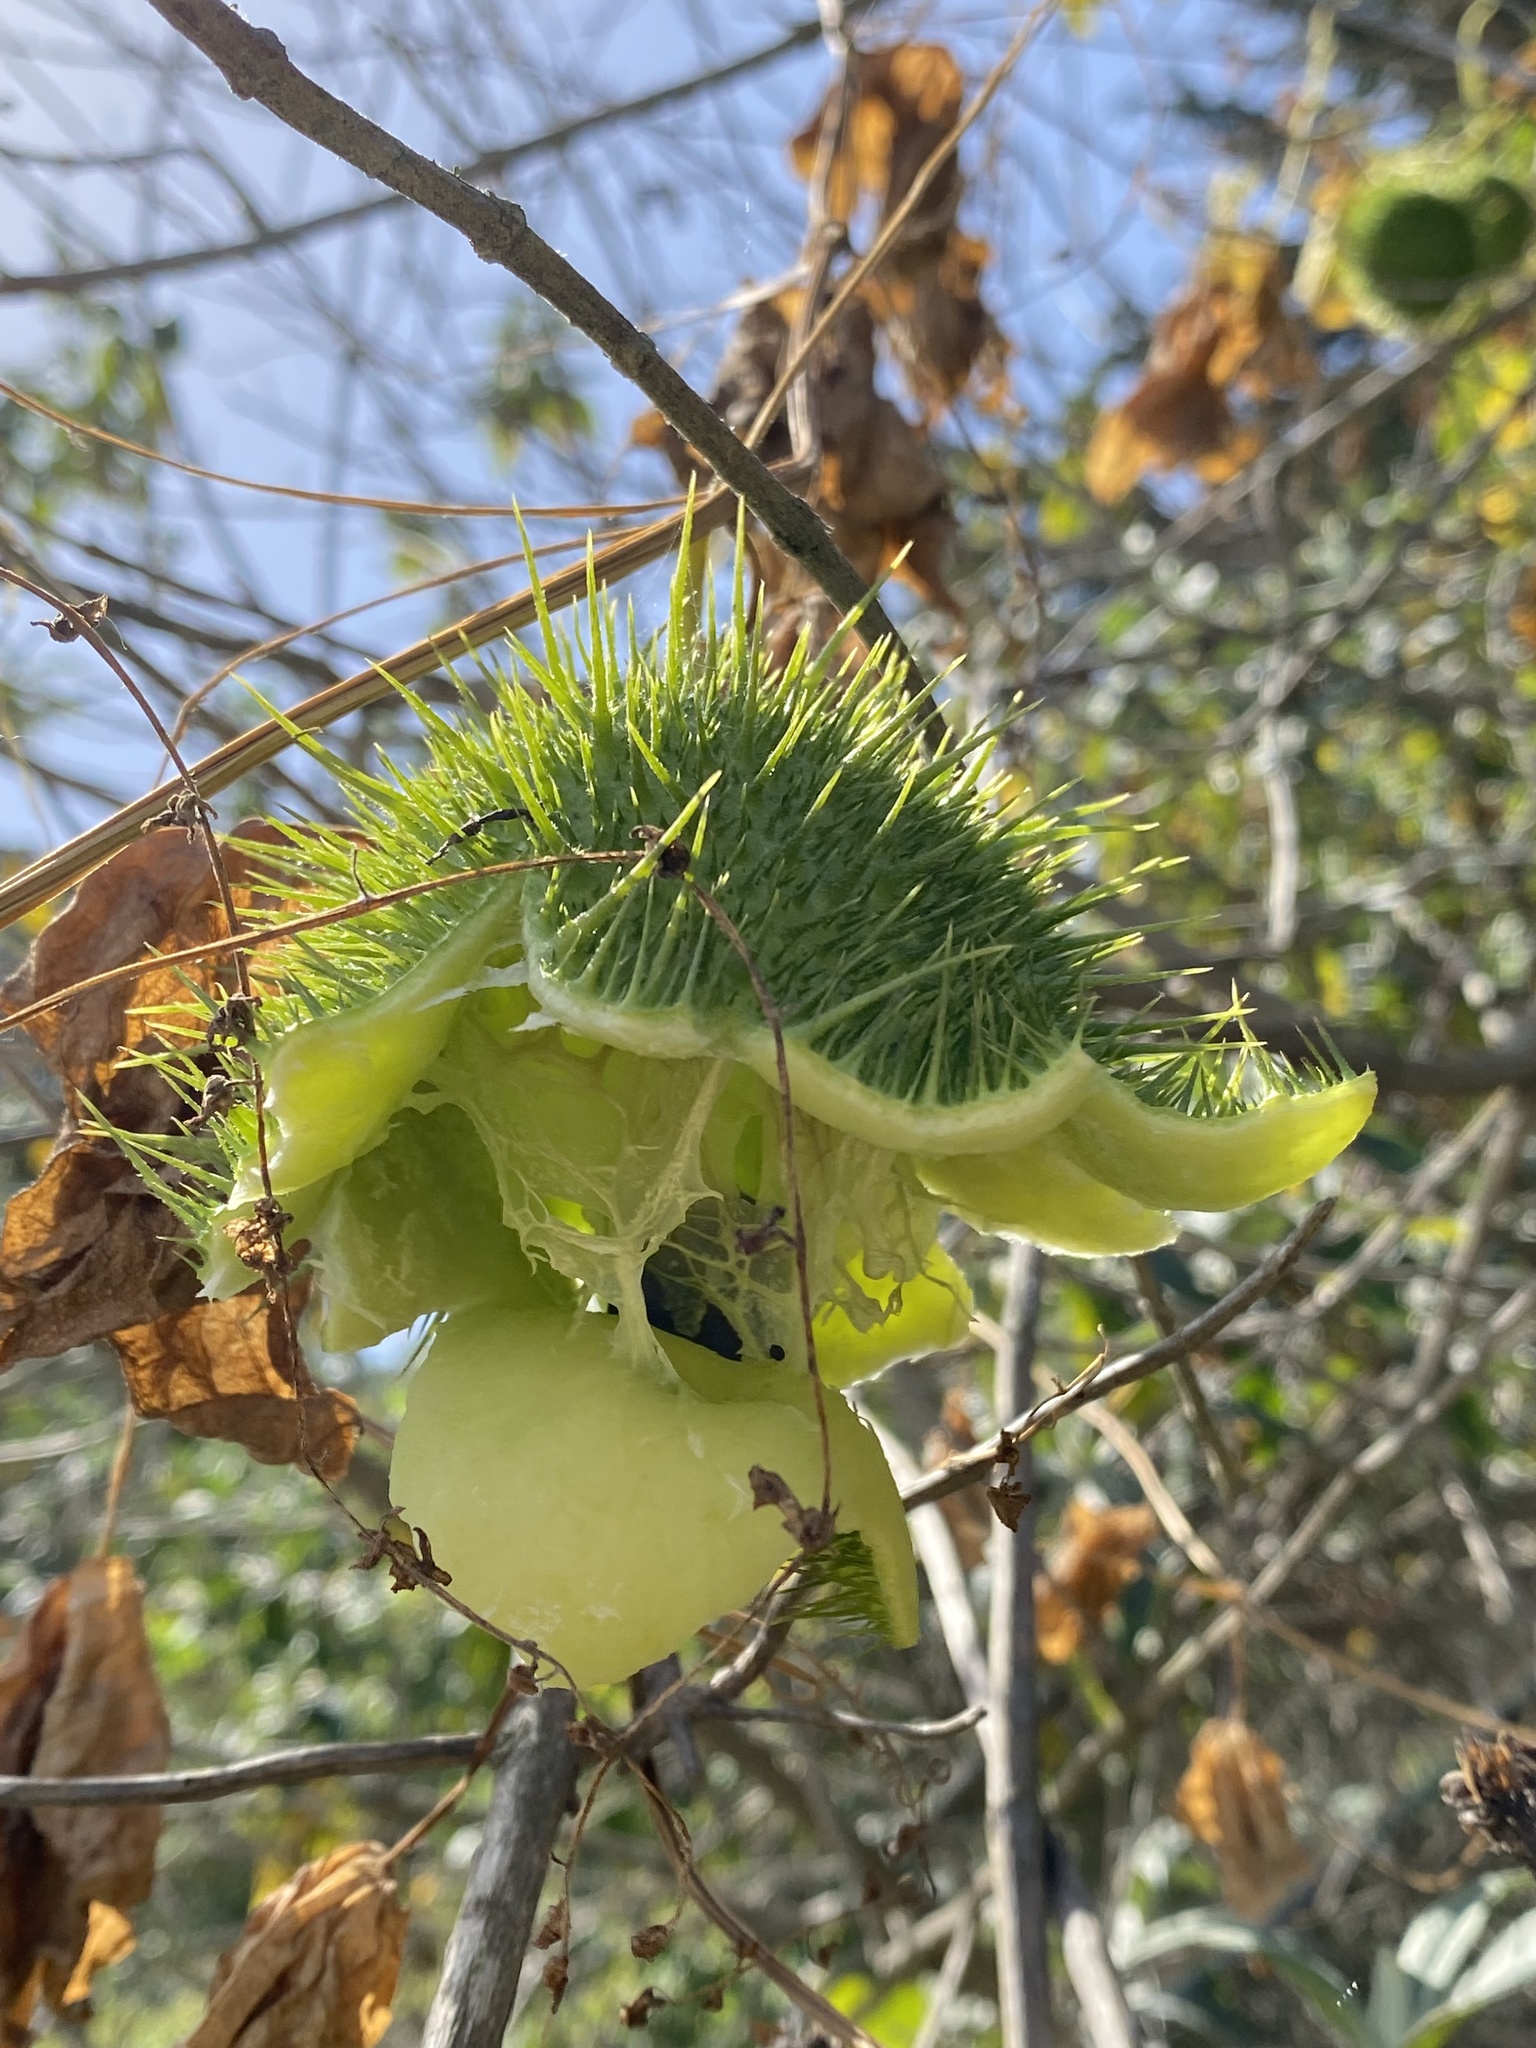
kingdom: Plantae
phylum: Tracheophyta
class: Magnoliopsida
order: Cucurbitales
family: Cucurbitaceae
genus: Marah
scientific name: Marah fabacea
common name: California manroot
